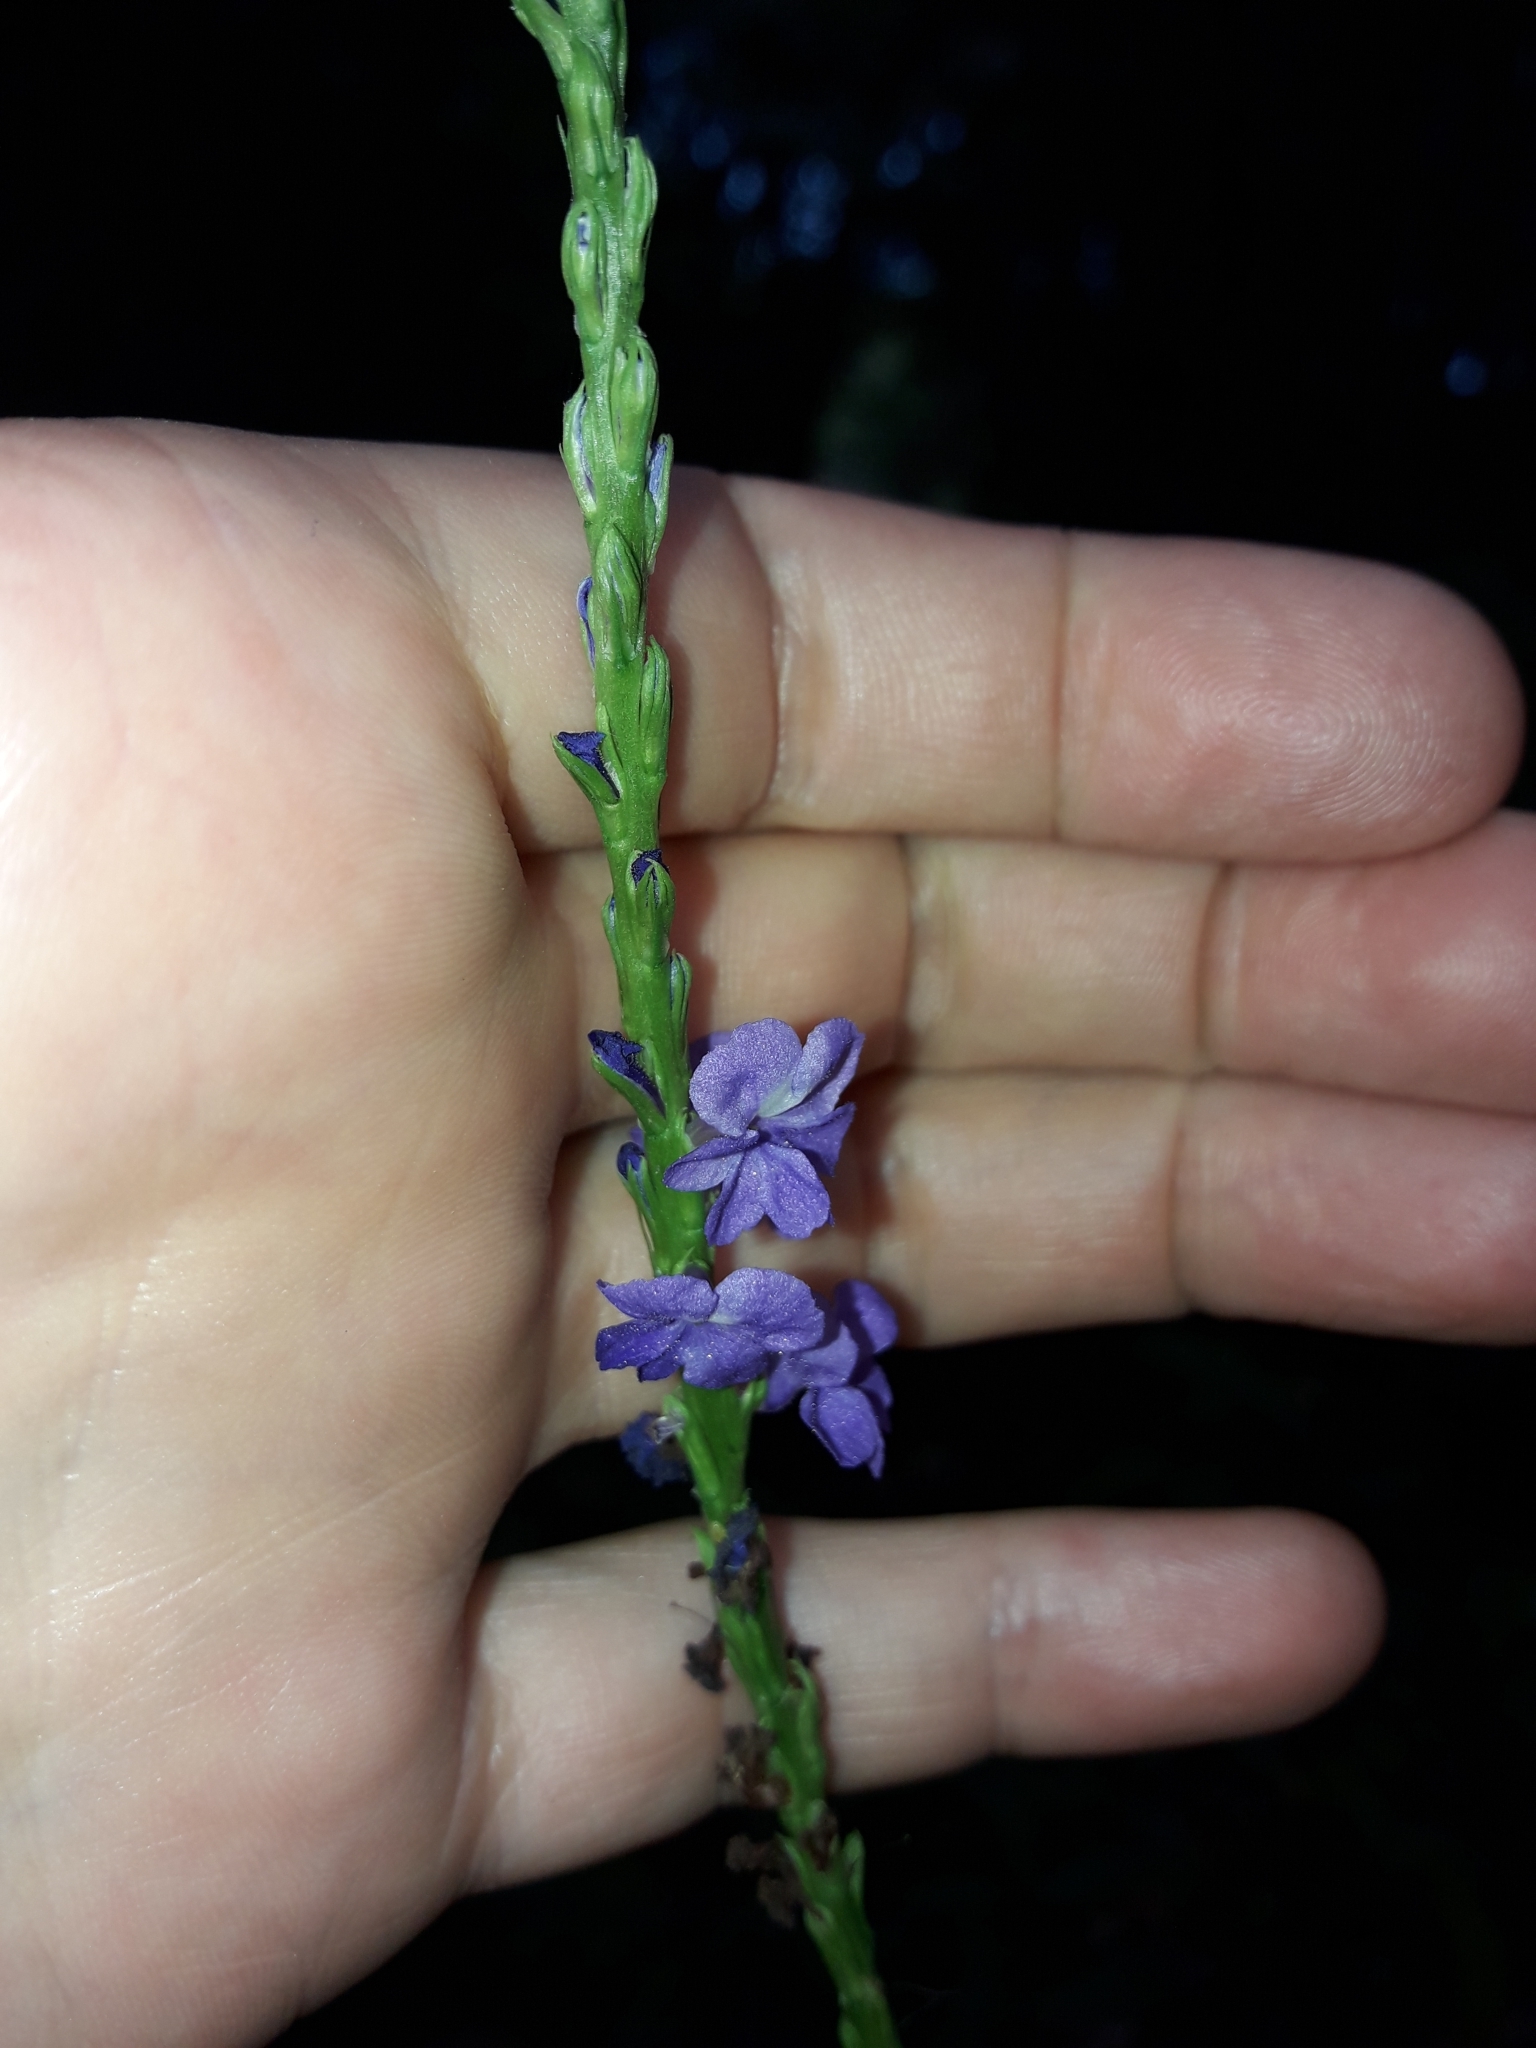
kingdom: Plantae
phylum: Tracheophyta
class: Magnoliopsida
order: Lamiales
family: Verbenaceae
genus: Stachytarpheta
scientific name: Stachytarpheta cayennensis
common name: Cayenne porterweed
